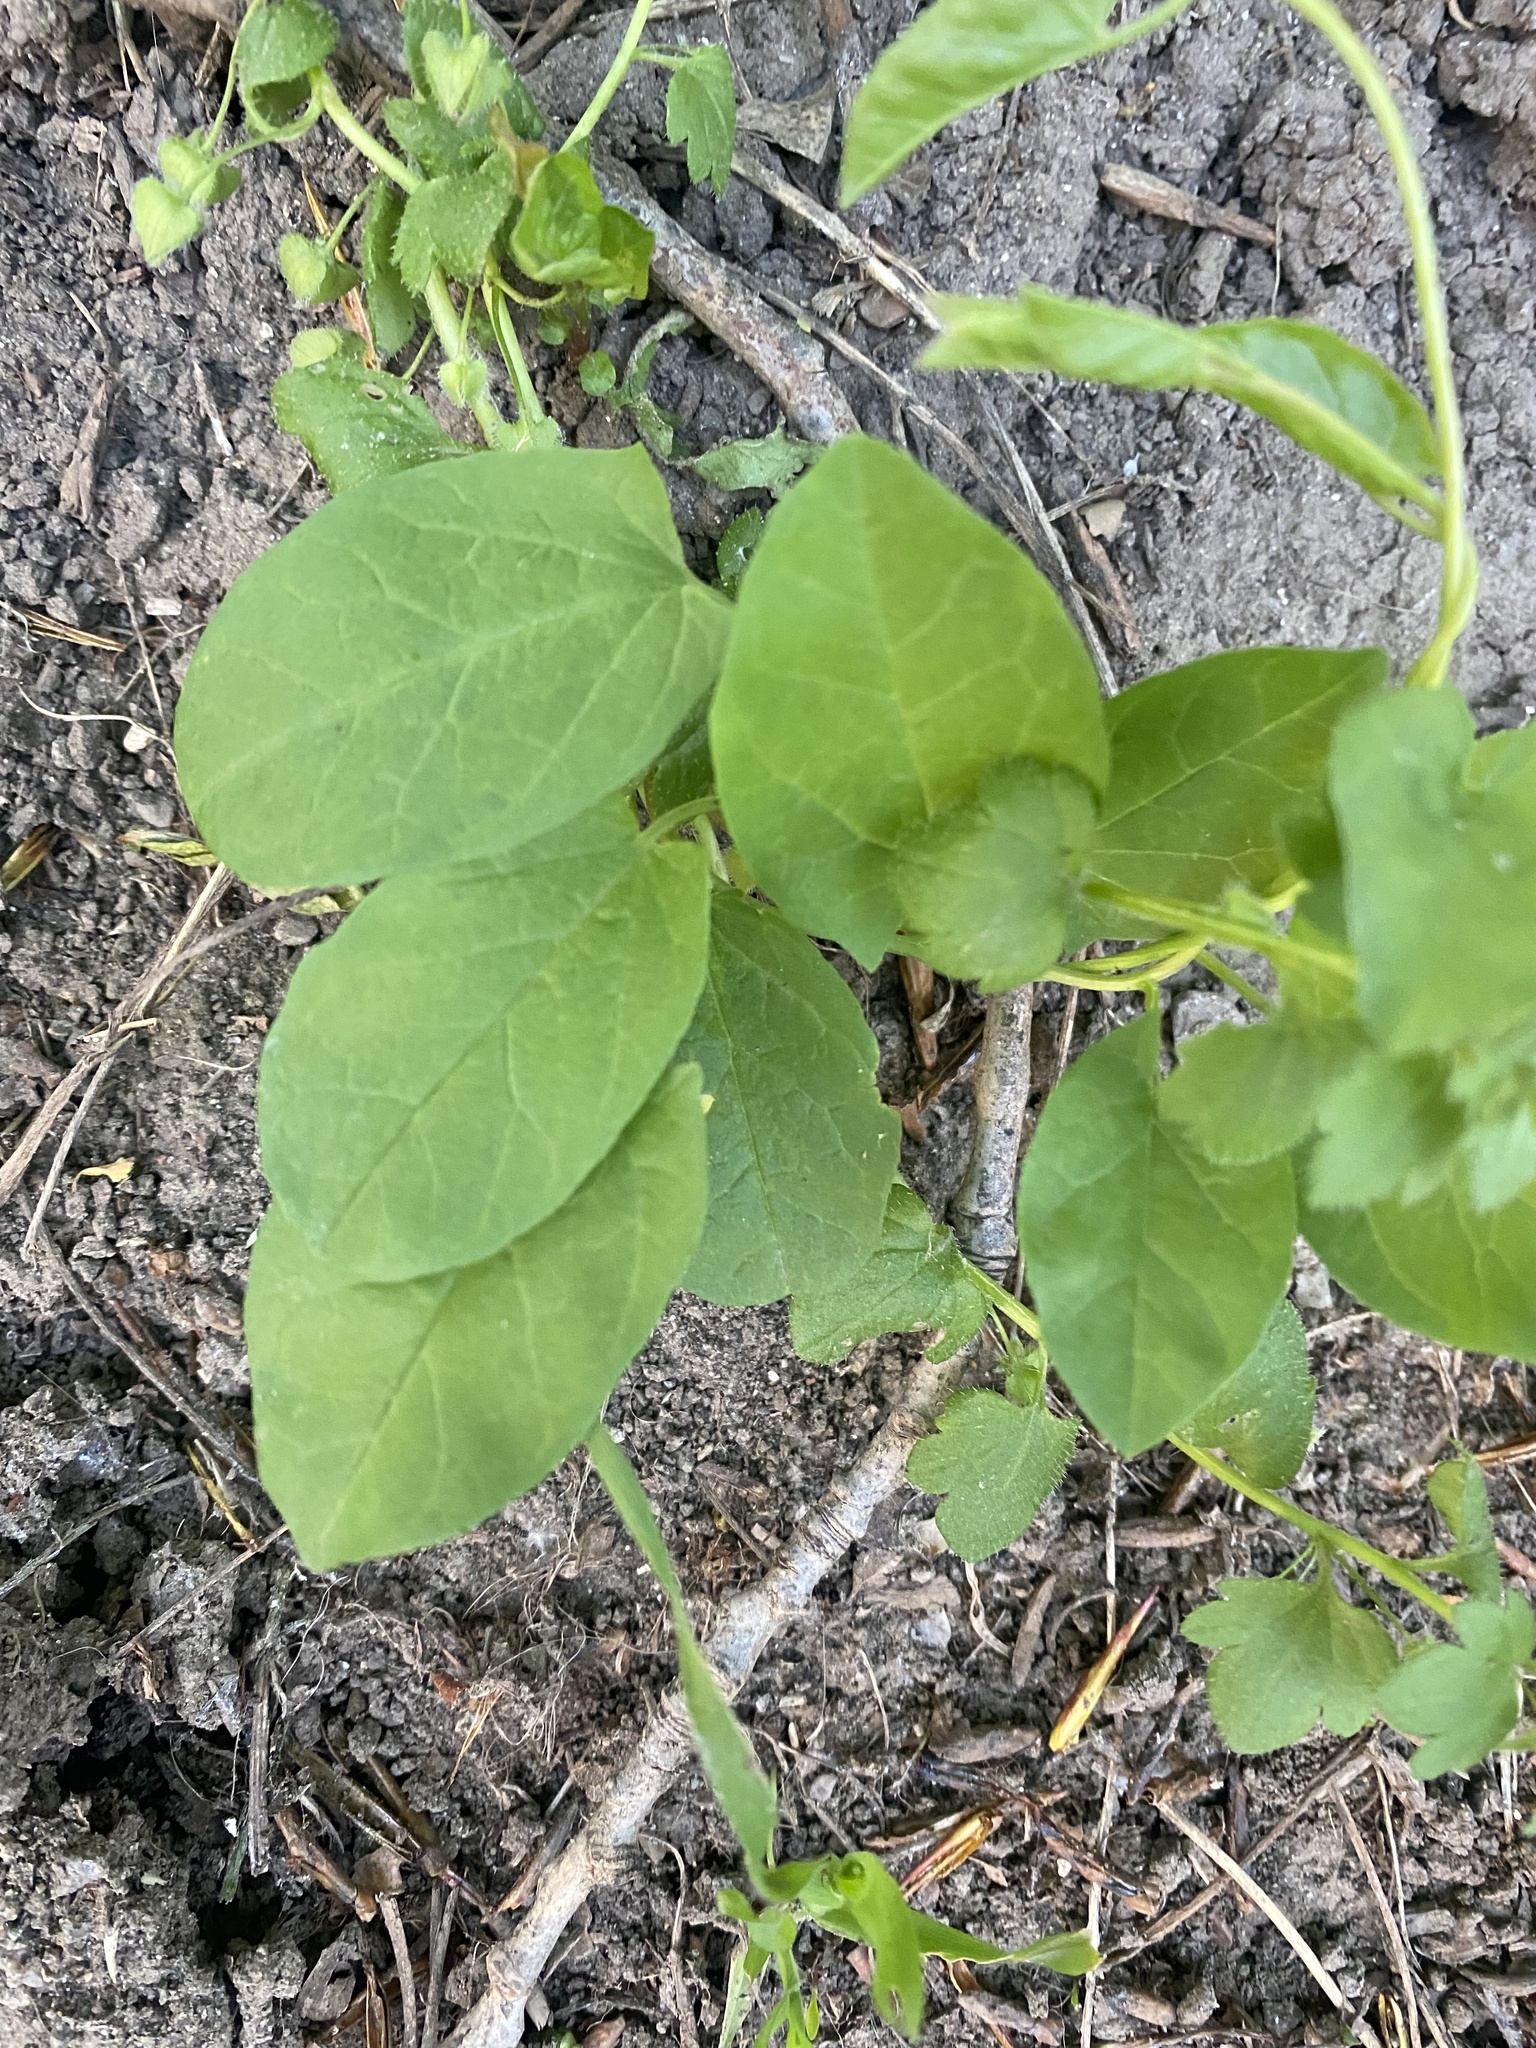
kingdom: Plantae
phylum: Tracheophyta
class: Magnoliopsida
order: Solanales
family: Convolvulaceae
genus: Convolvulus
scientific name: Convolvulus arvensis
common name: Field bindweed
